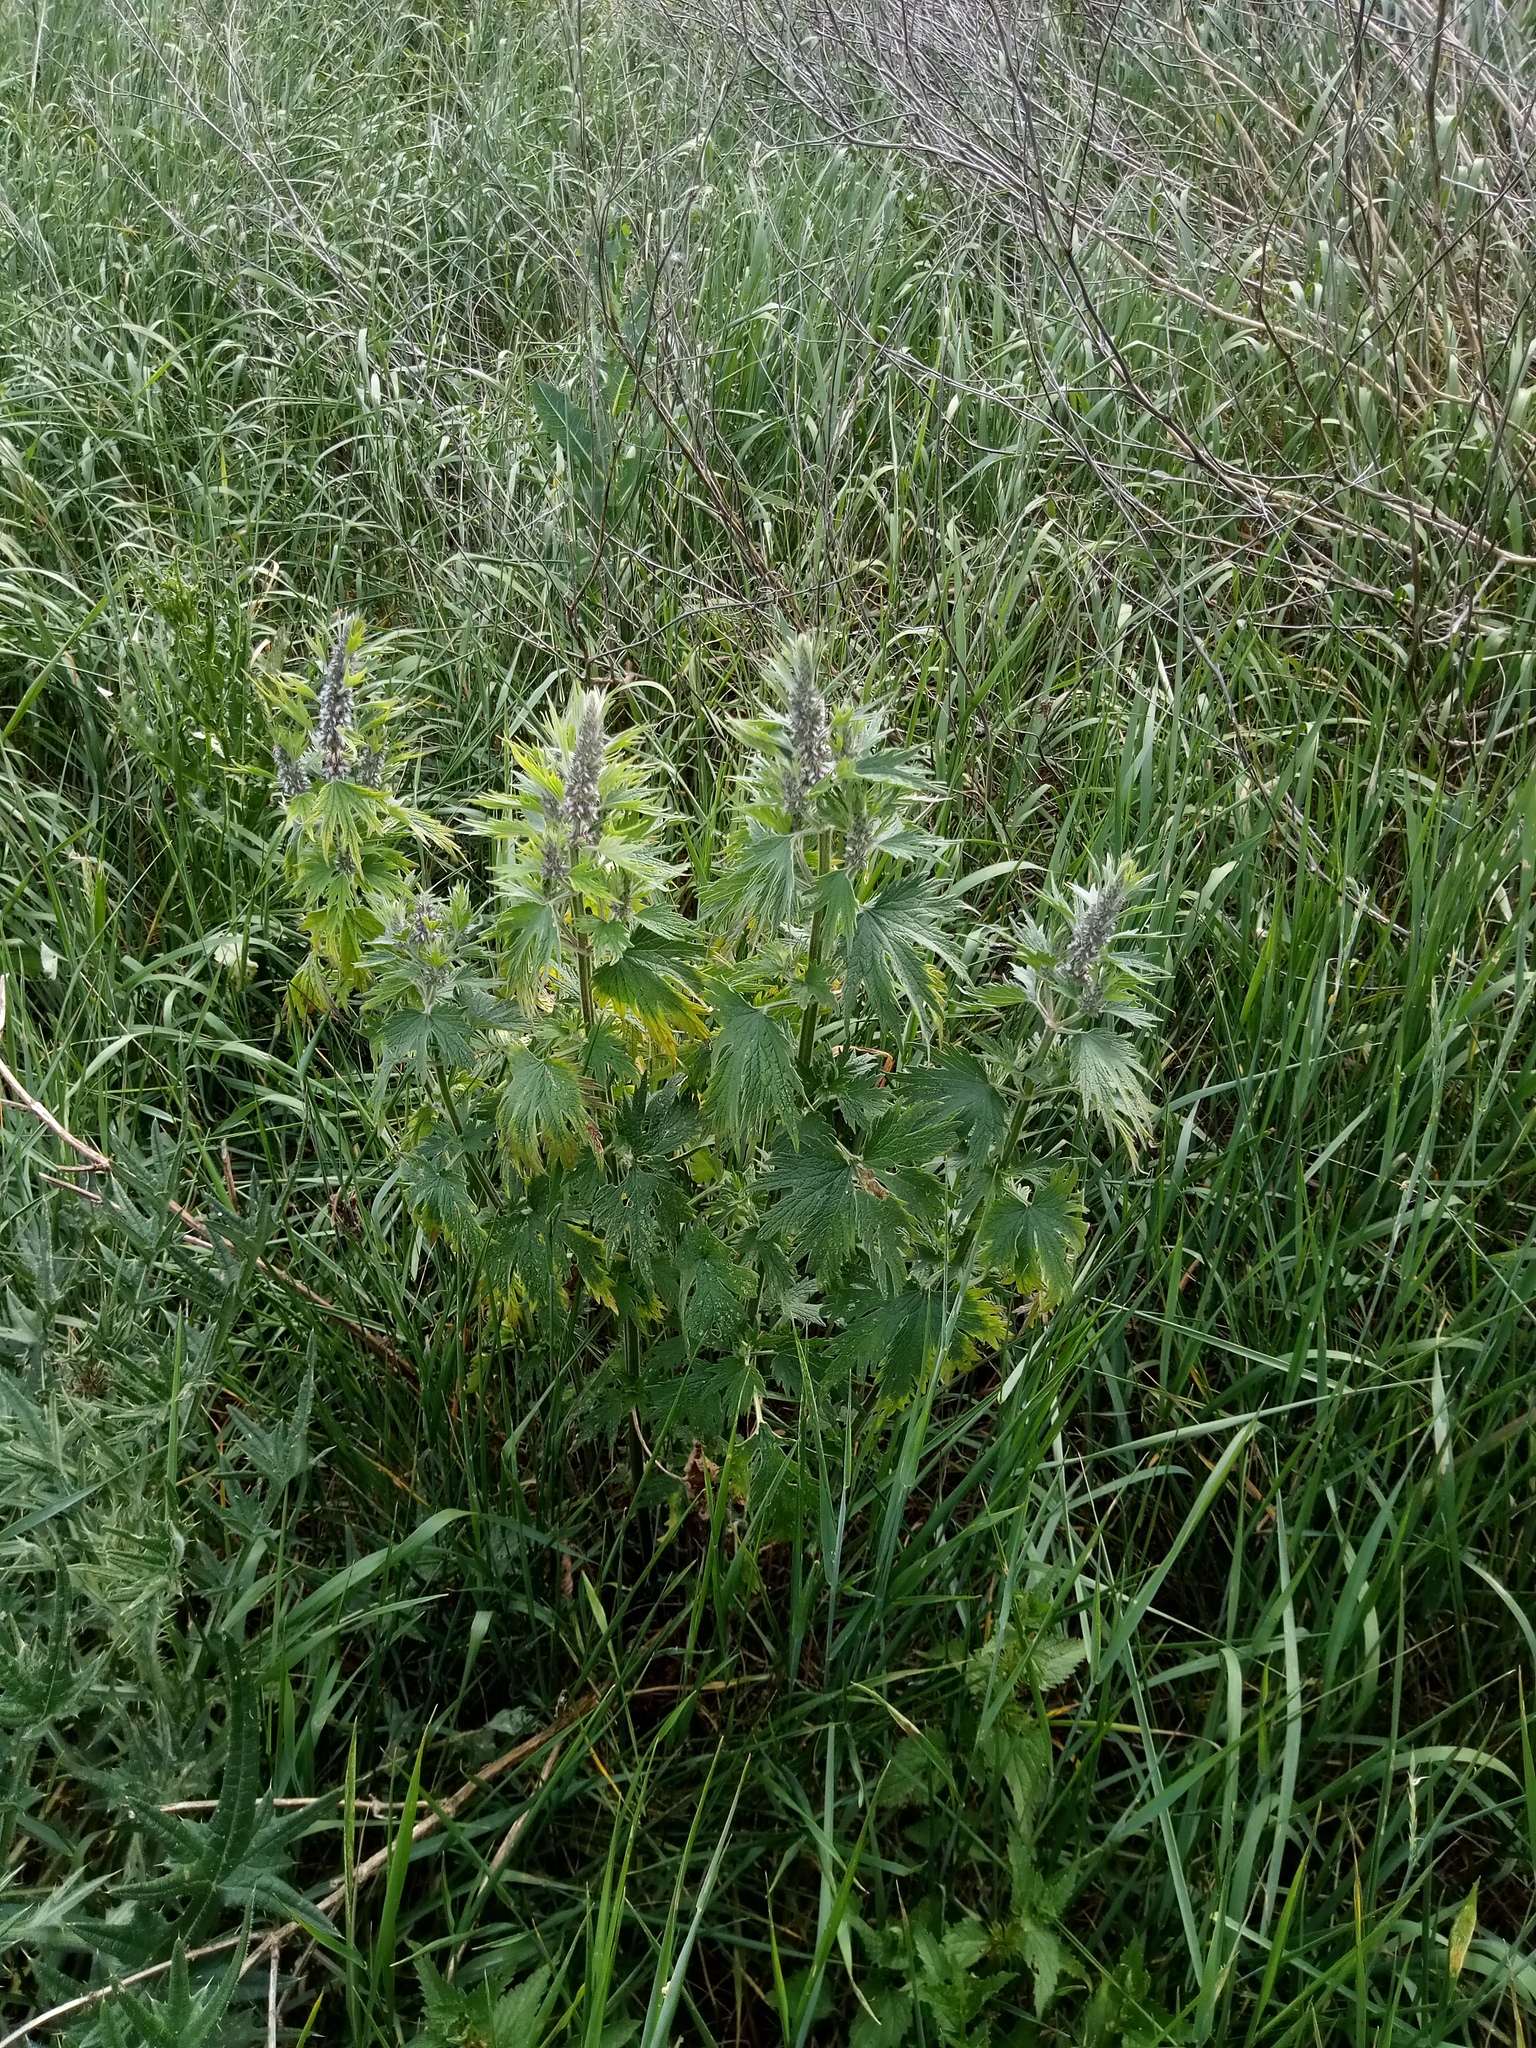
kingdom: Plantae
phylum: Tracheophyta
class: Magnoliopsida
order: Lamiales
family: Lamiaceae
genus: Leonurus
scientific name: Leonurus cardiaca
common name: Motherwort
